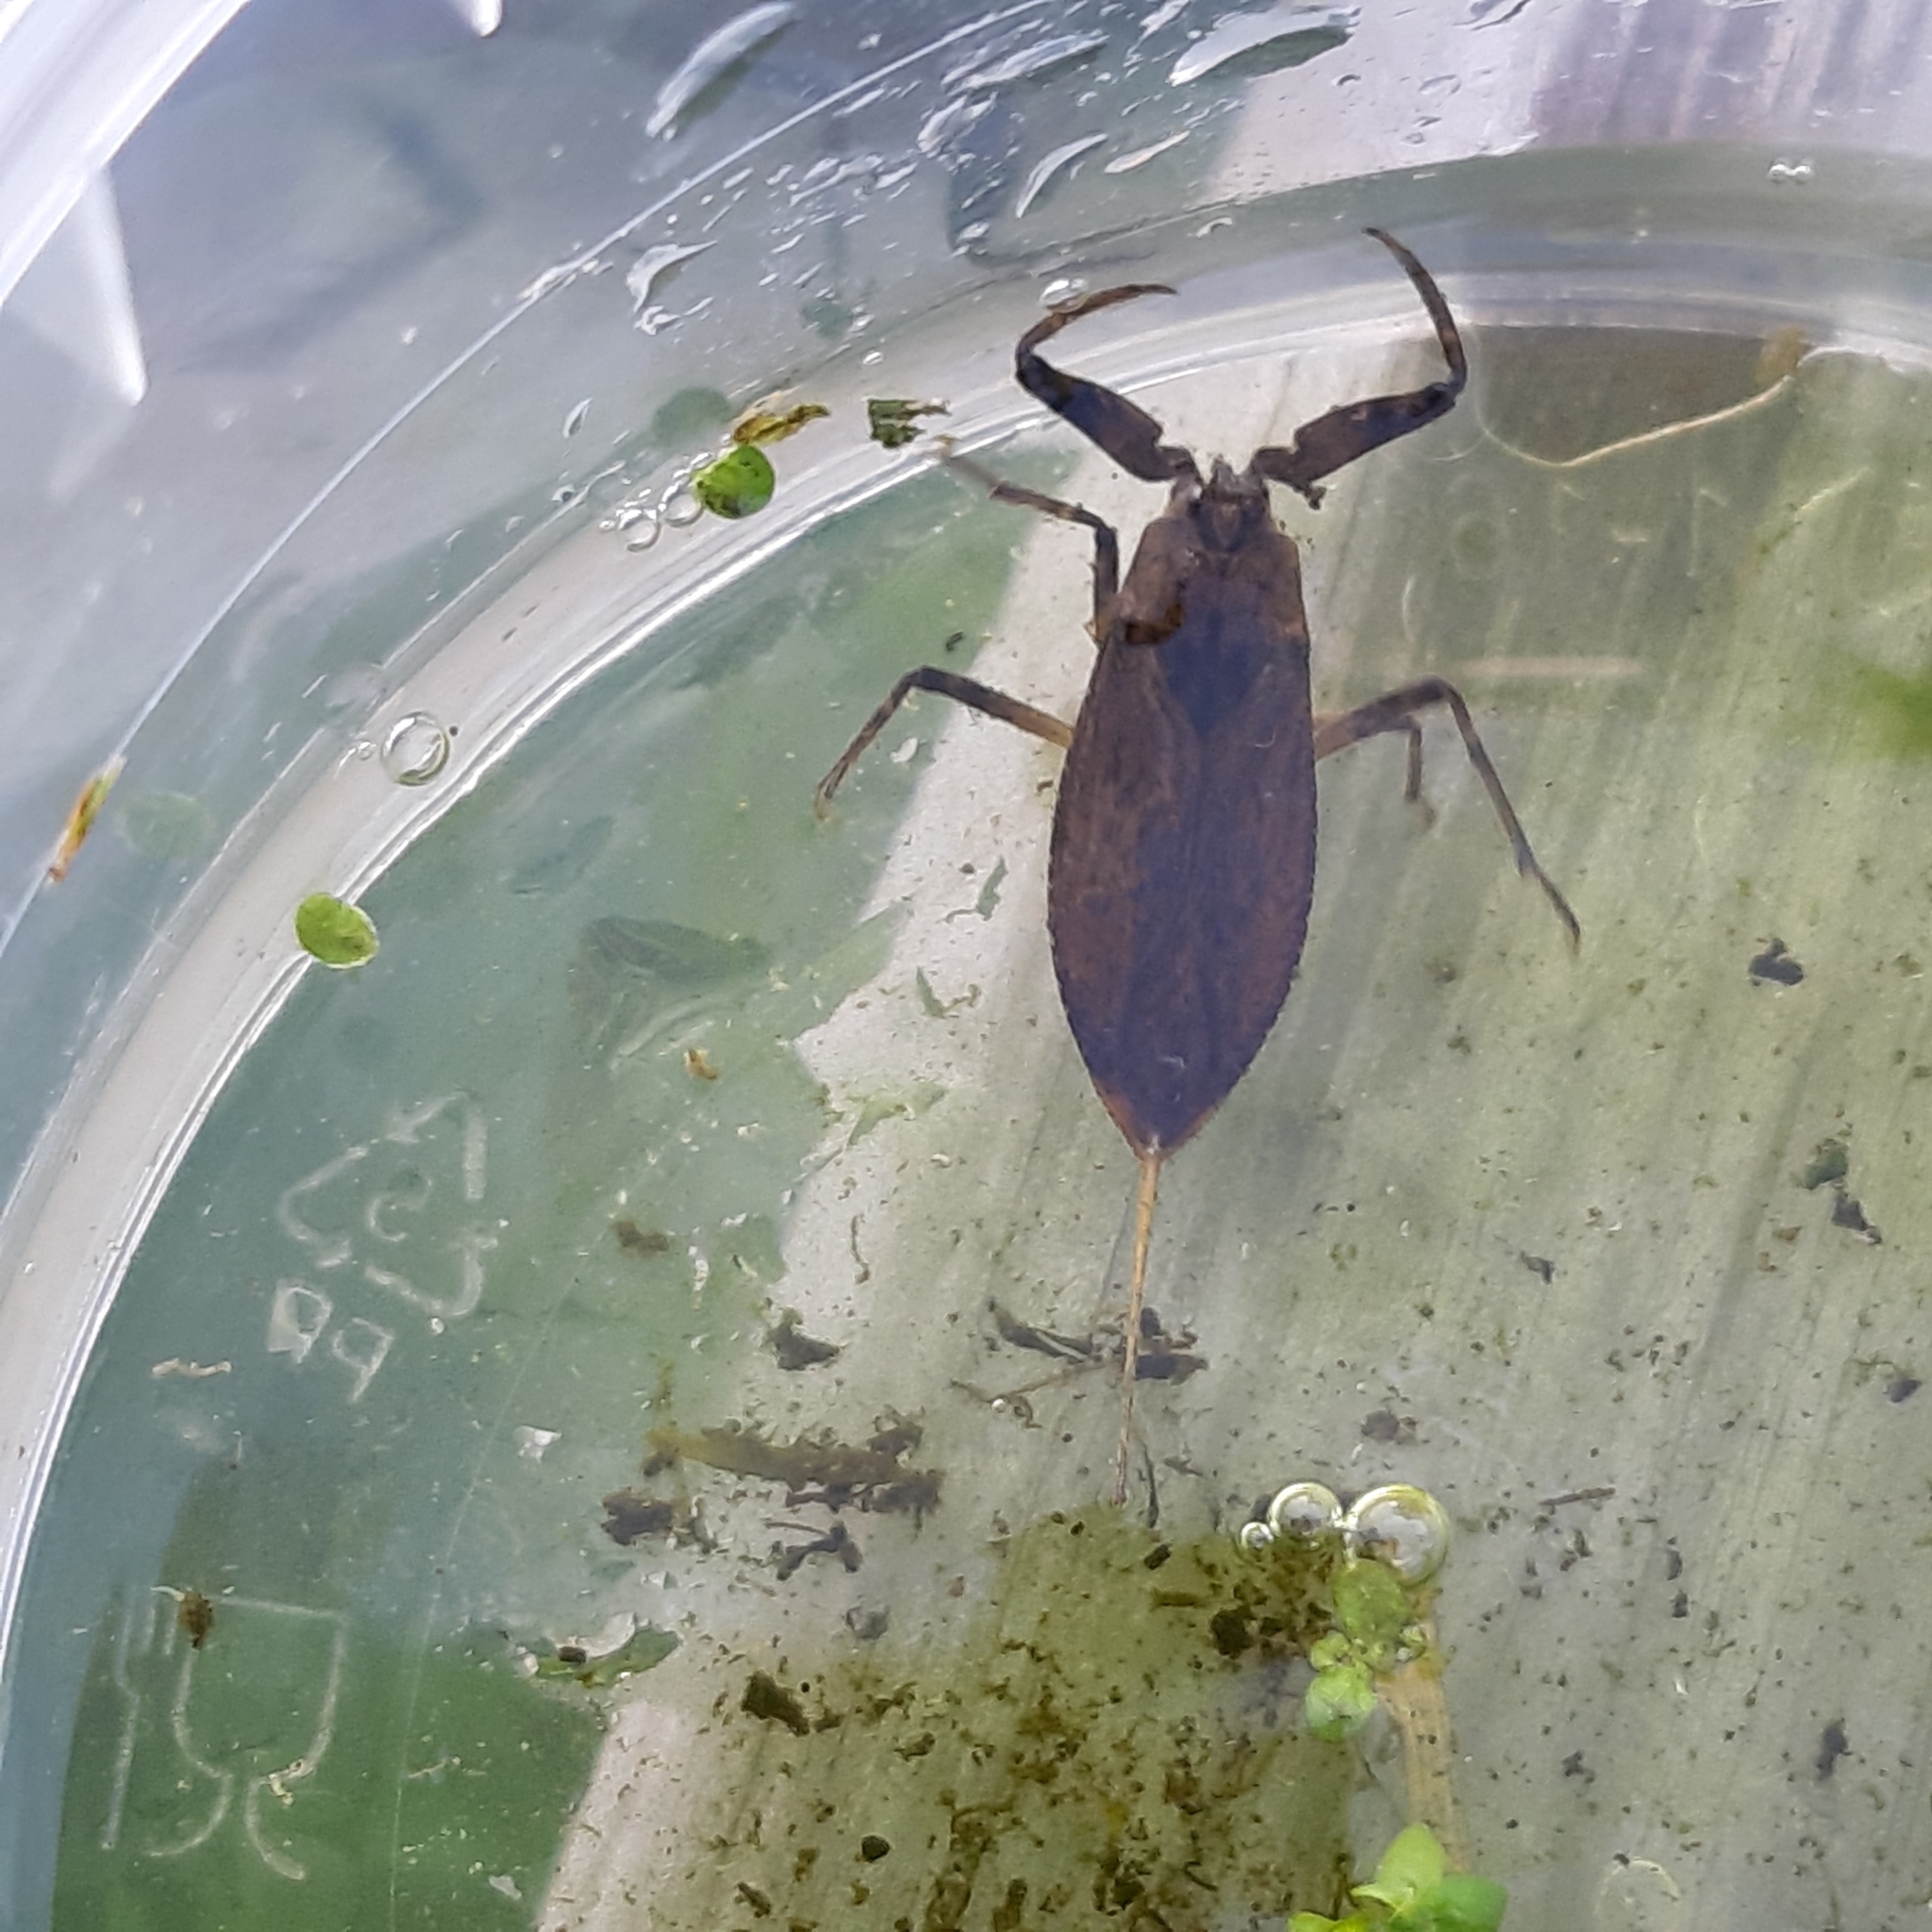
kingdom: Animalia
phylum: Arthropoda
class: Insecta
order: Hemiptera
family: Nepidae
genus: Nepa
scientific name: Nepa cinerea
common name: Water scorpion
